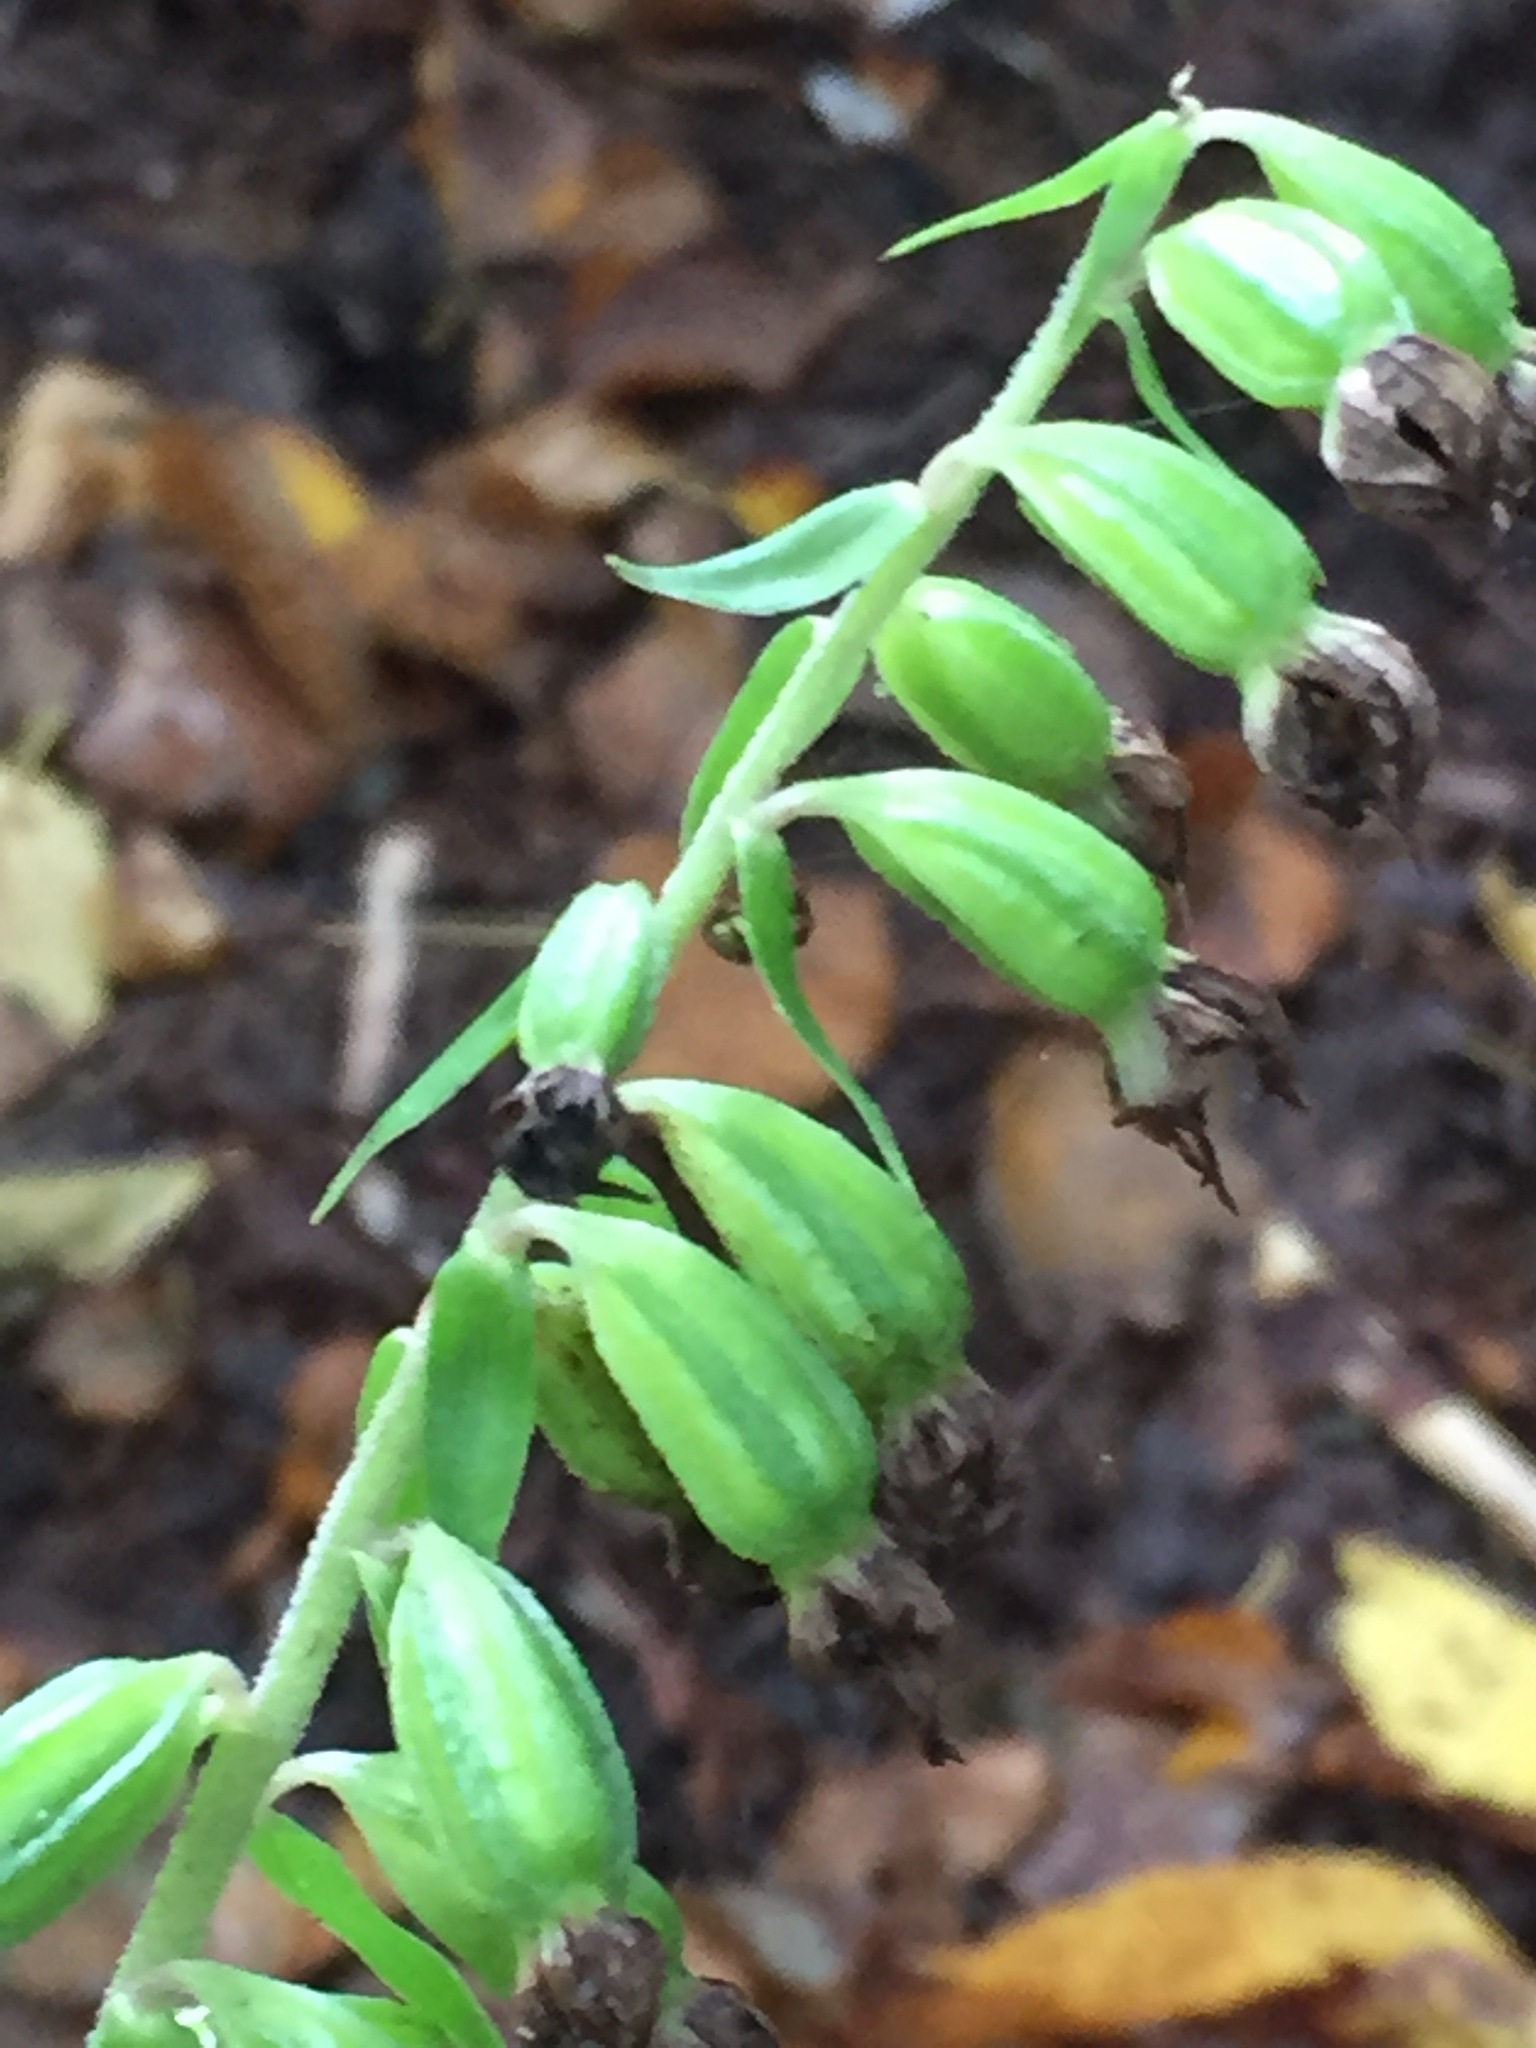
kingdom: Plantae
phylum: Tracheophyta
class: Liliopsida
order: Asparagales
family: Orchidaceae
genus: Epipactis
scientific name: Epipactis helleborine
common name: Broad-leaved helleborine
